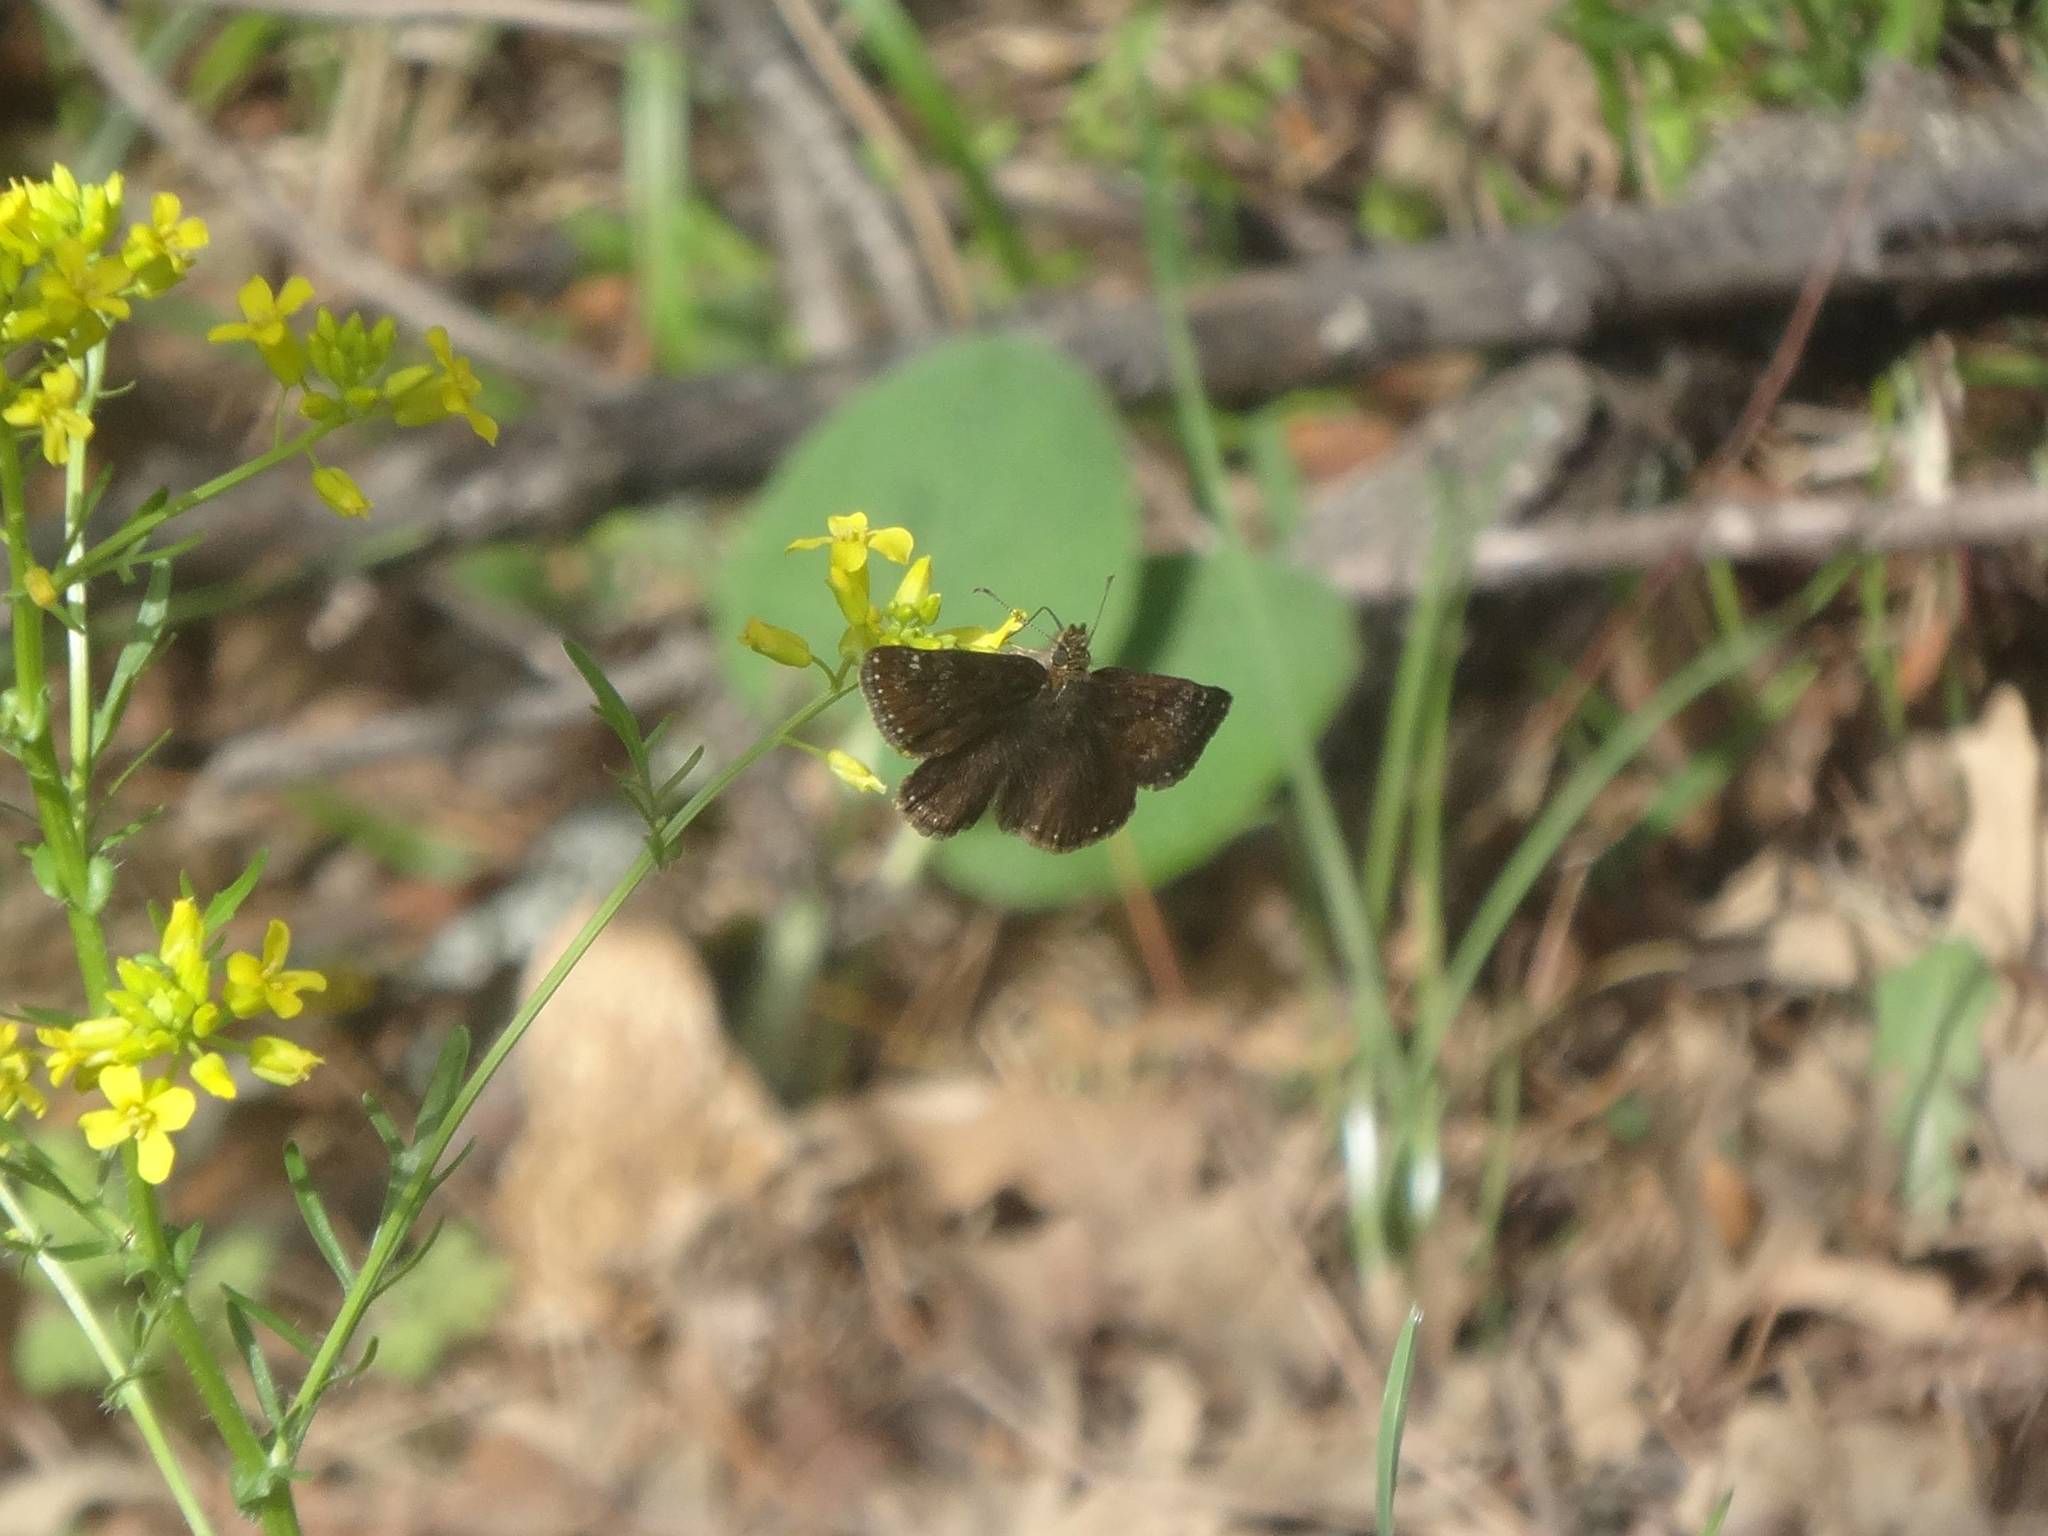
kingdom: Animalia
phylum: Arthropoda
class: Insecta
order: Lepidoptera
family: Hesperiidae
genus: Erynnis
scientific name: Erynnis tages
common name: Dingy skipper
